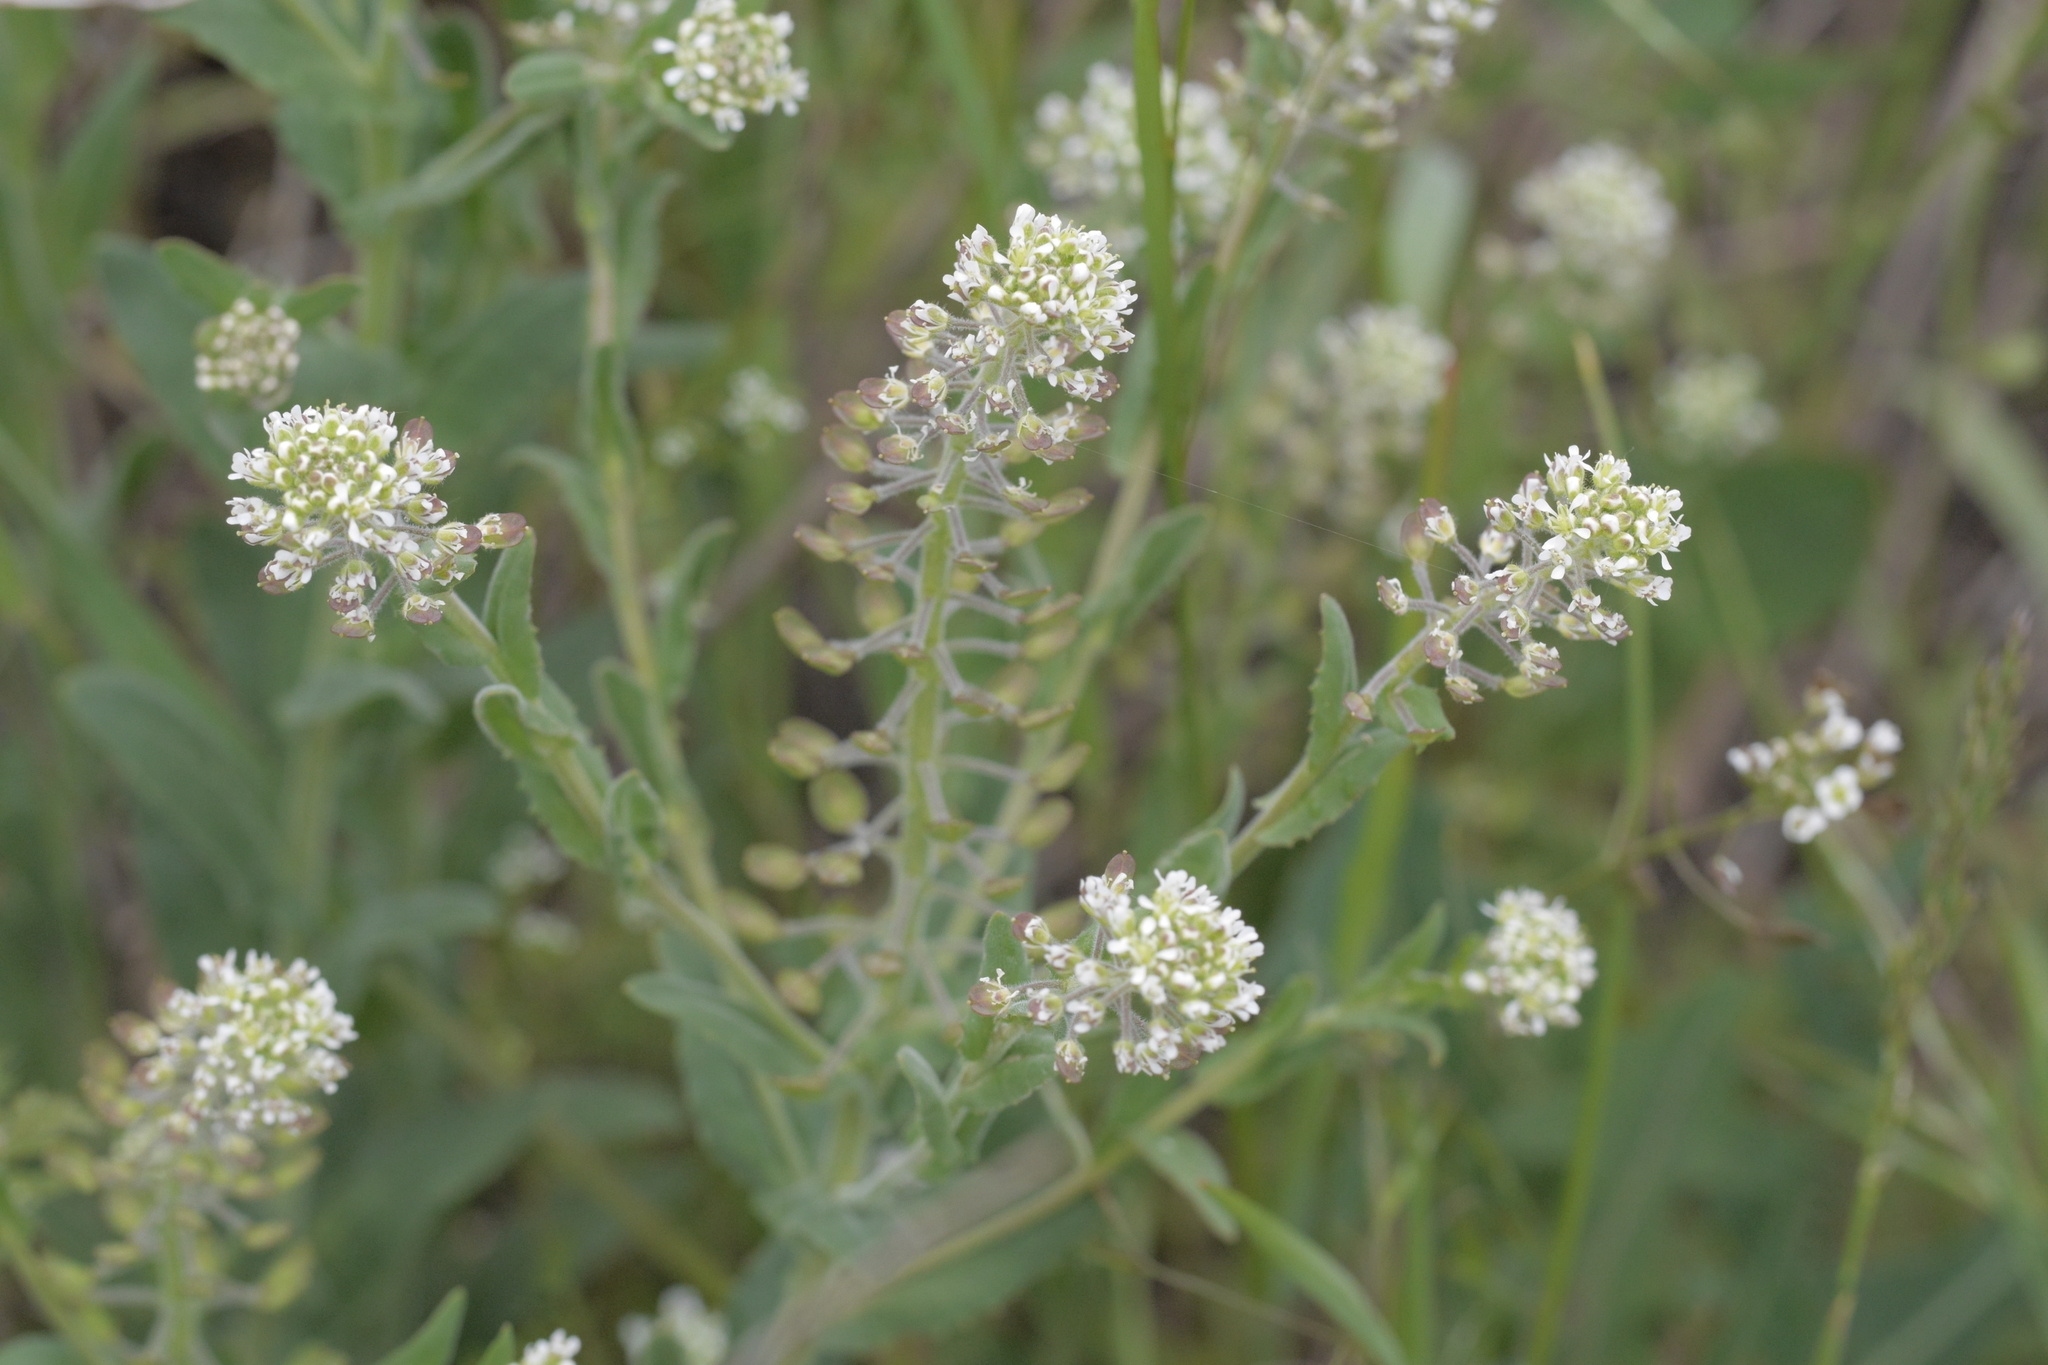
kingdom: Plantae
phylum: Tracheophyta
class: Magnoliopsida
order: Brassicales
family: Brassicaceae
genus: Lepidium
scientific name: Lepidium campestre
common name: Field pepperwort
